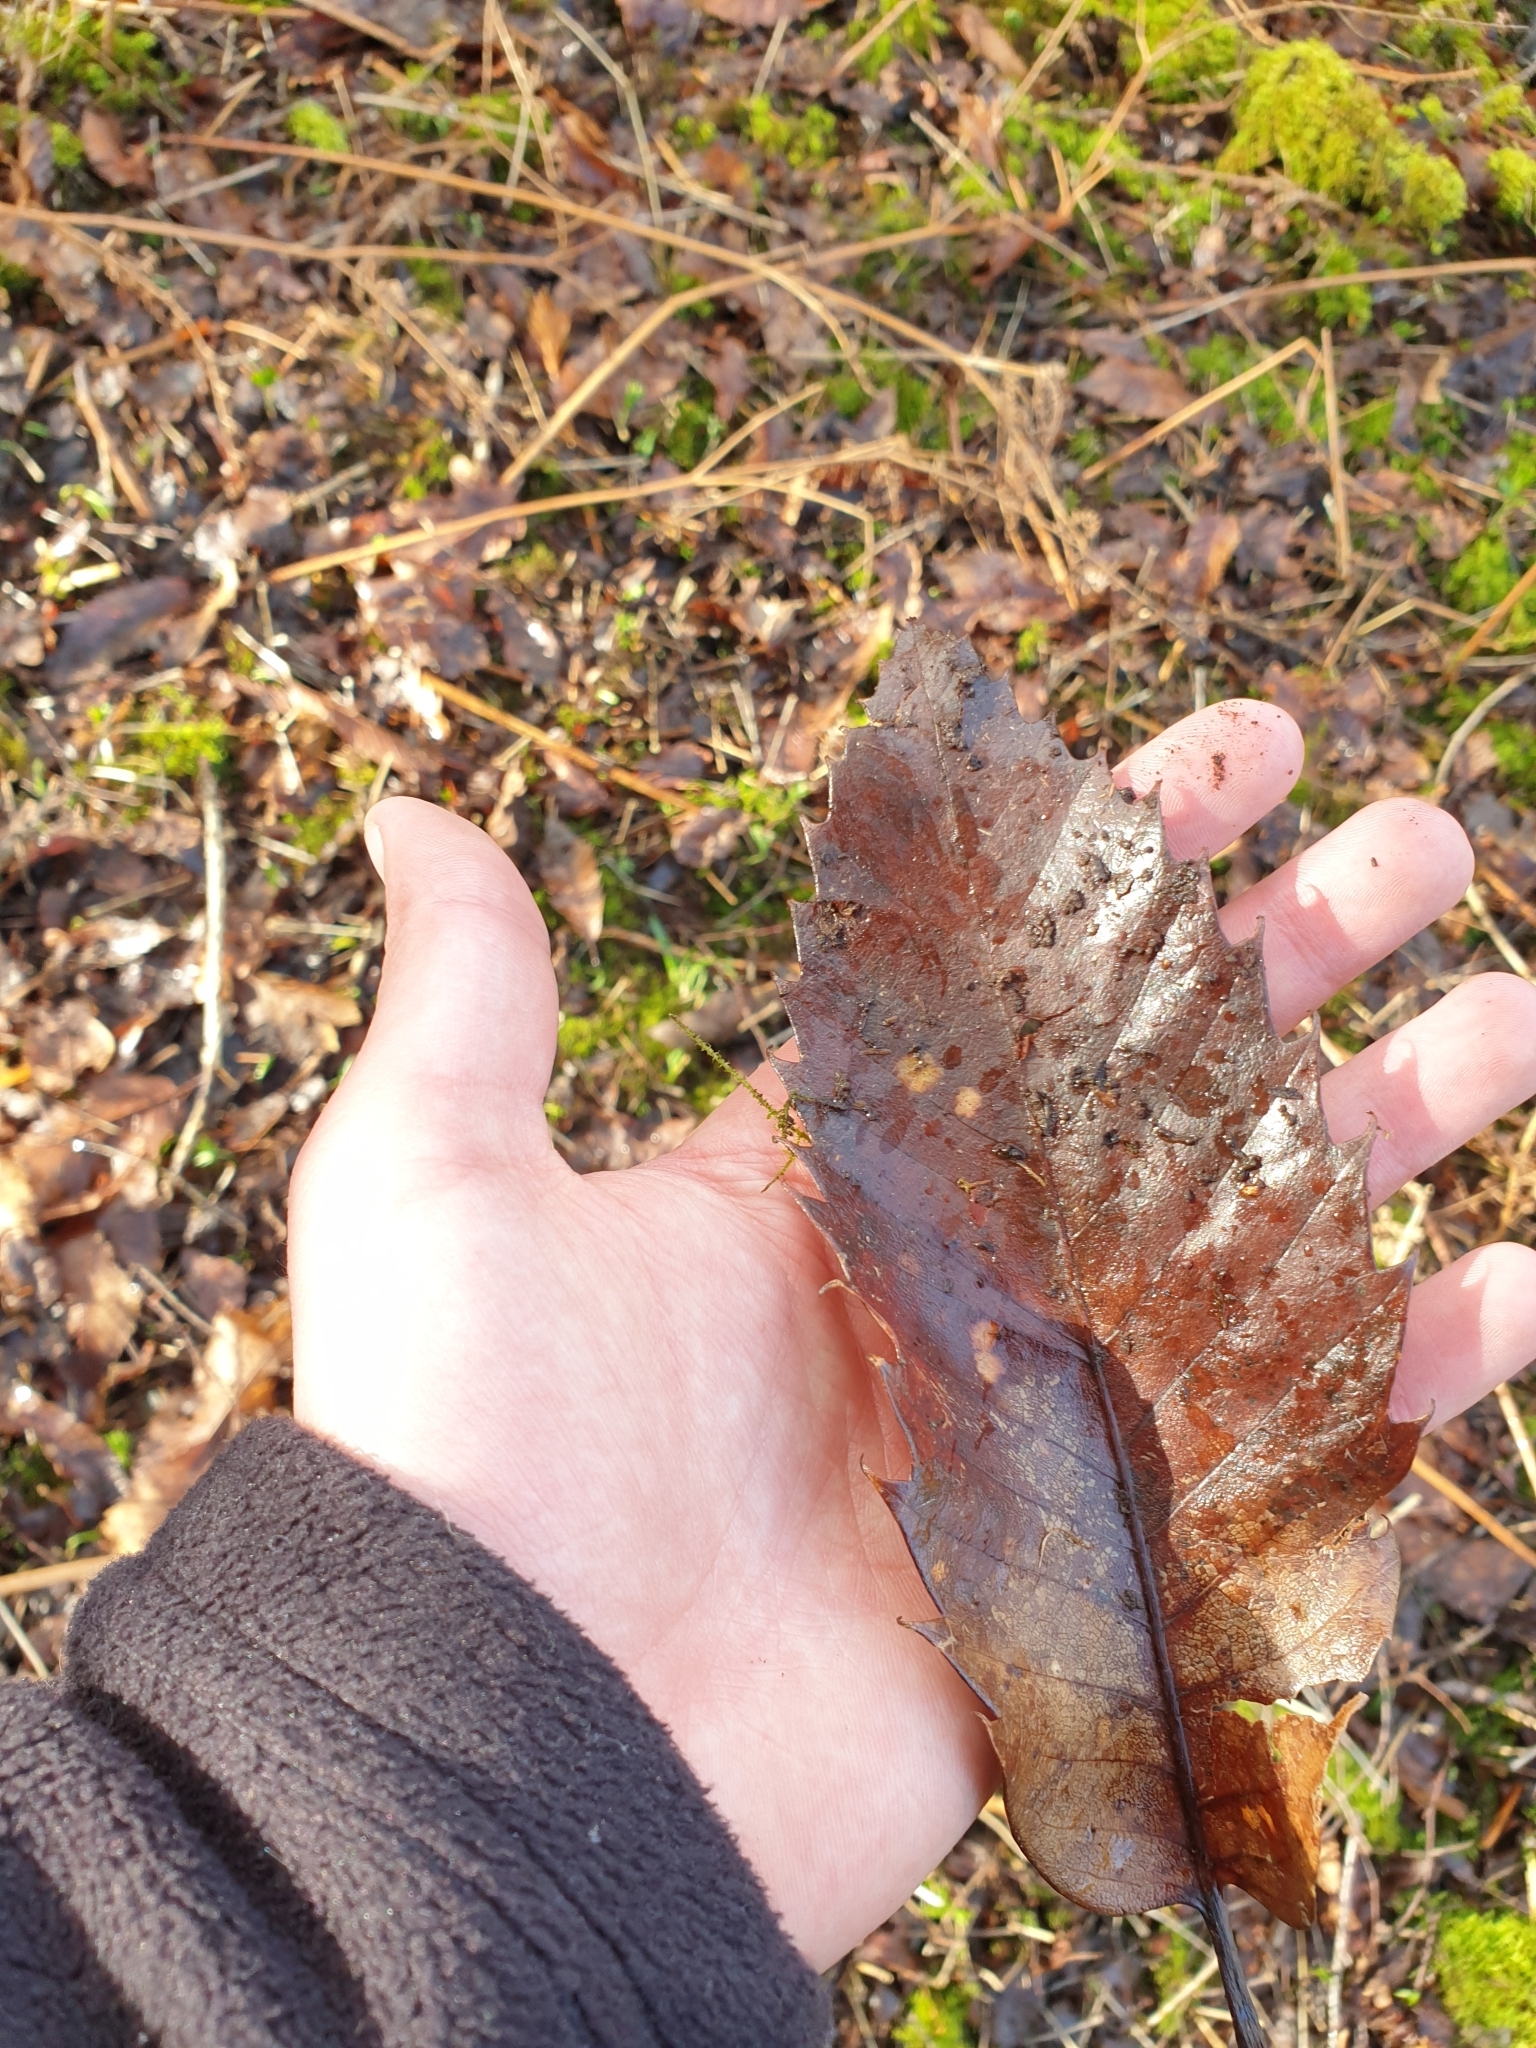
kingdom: Plantae
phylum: Tracheophyta
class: Magnoliopsida
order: Fagales
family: Fagaceae
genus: Castanea
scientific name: Castanea sativa
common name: Sweet chestnut
